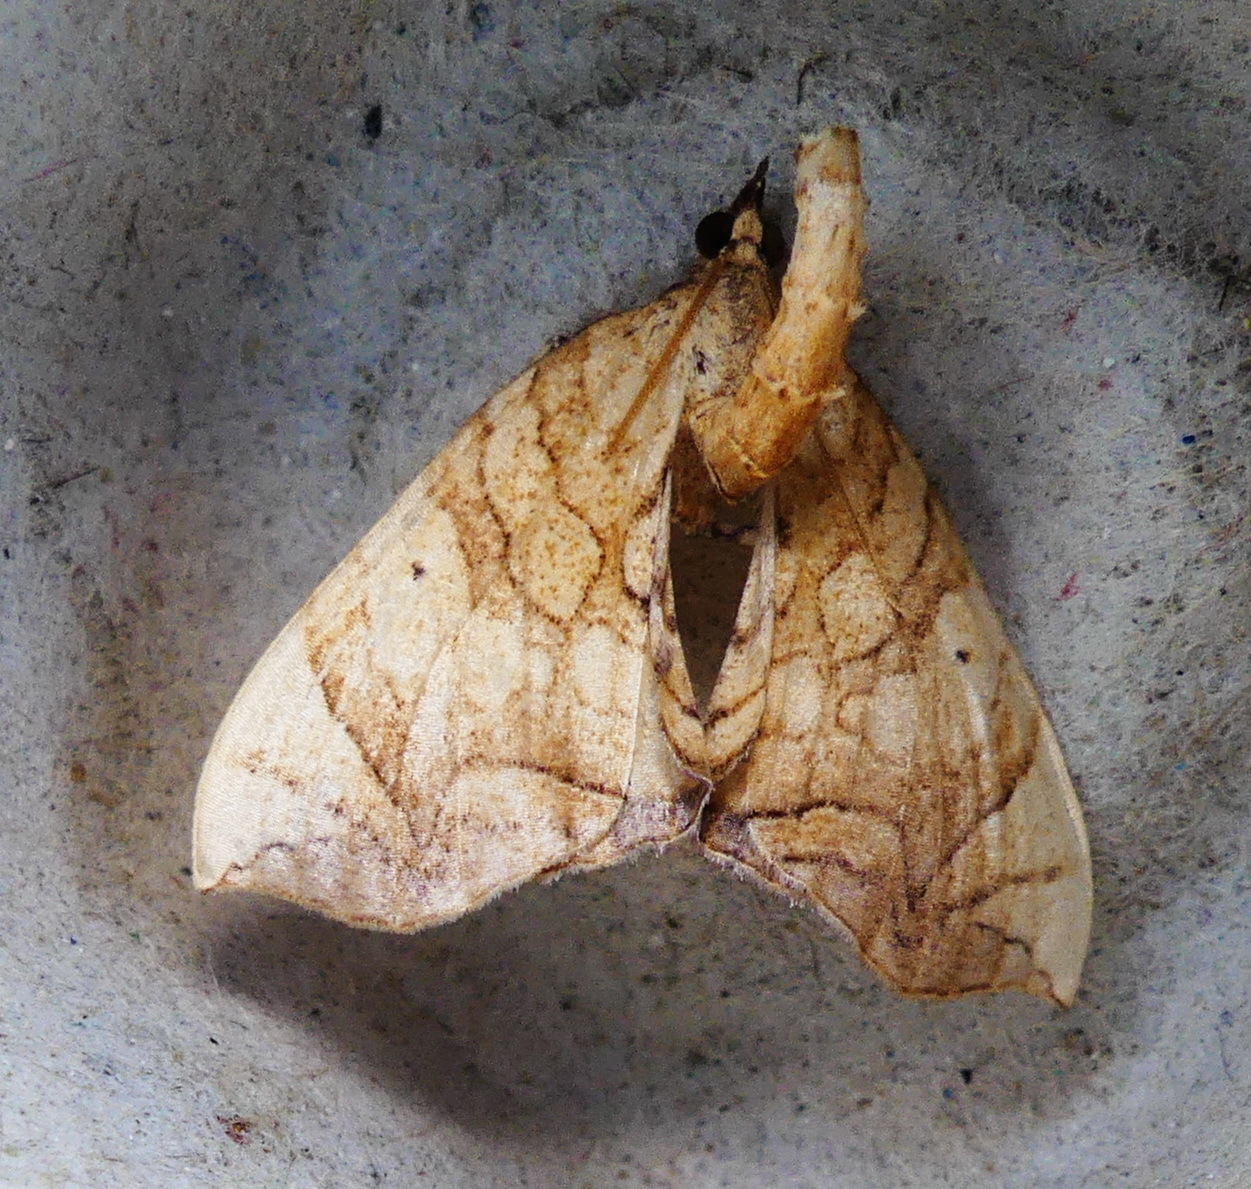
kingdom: Animalia
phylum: Arthropoda
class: Insecta
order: Lepidoptera
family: Geometridae
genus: Eulithis
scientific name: Eulithis
